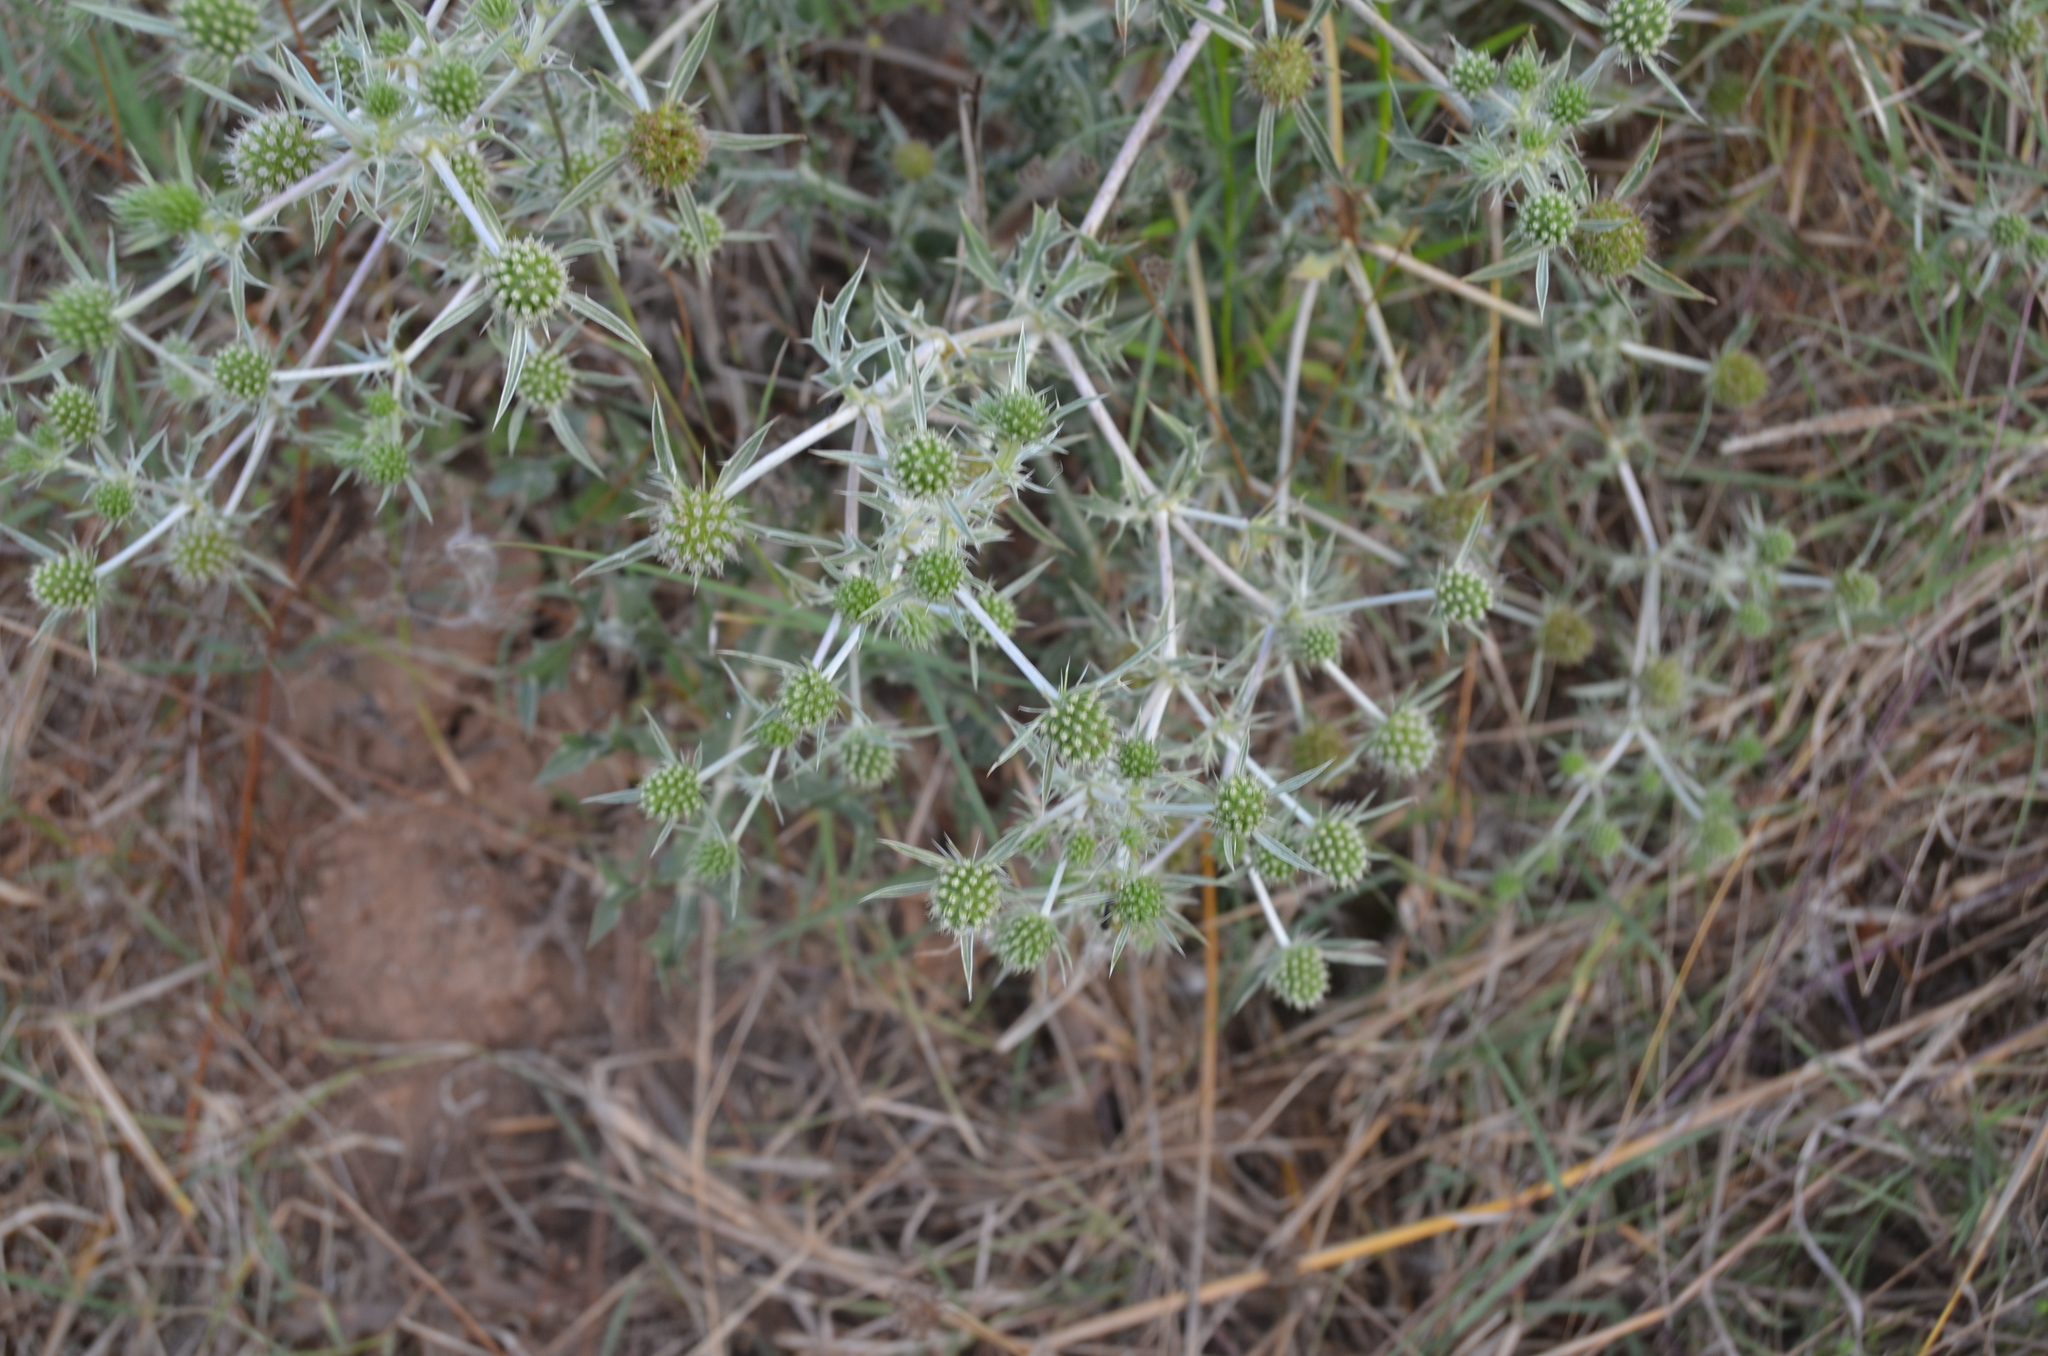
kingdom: Plantae
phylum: Tracheophyta
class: Magnoliopsida
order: Apiales
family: Apiaceae
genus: Eryngium
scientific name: Eryngium campestre
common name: Field eryngo
